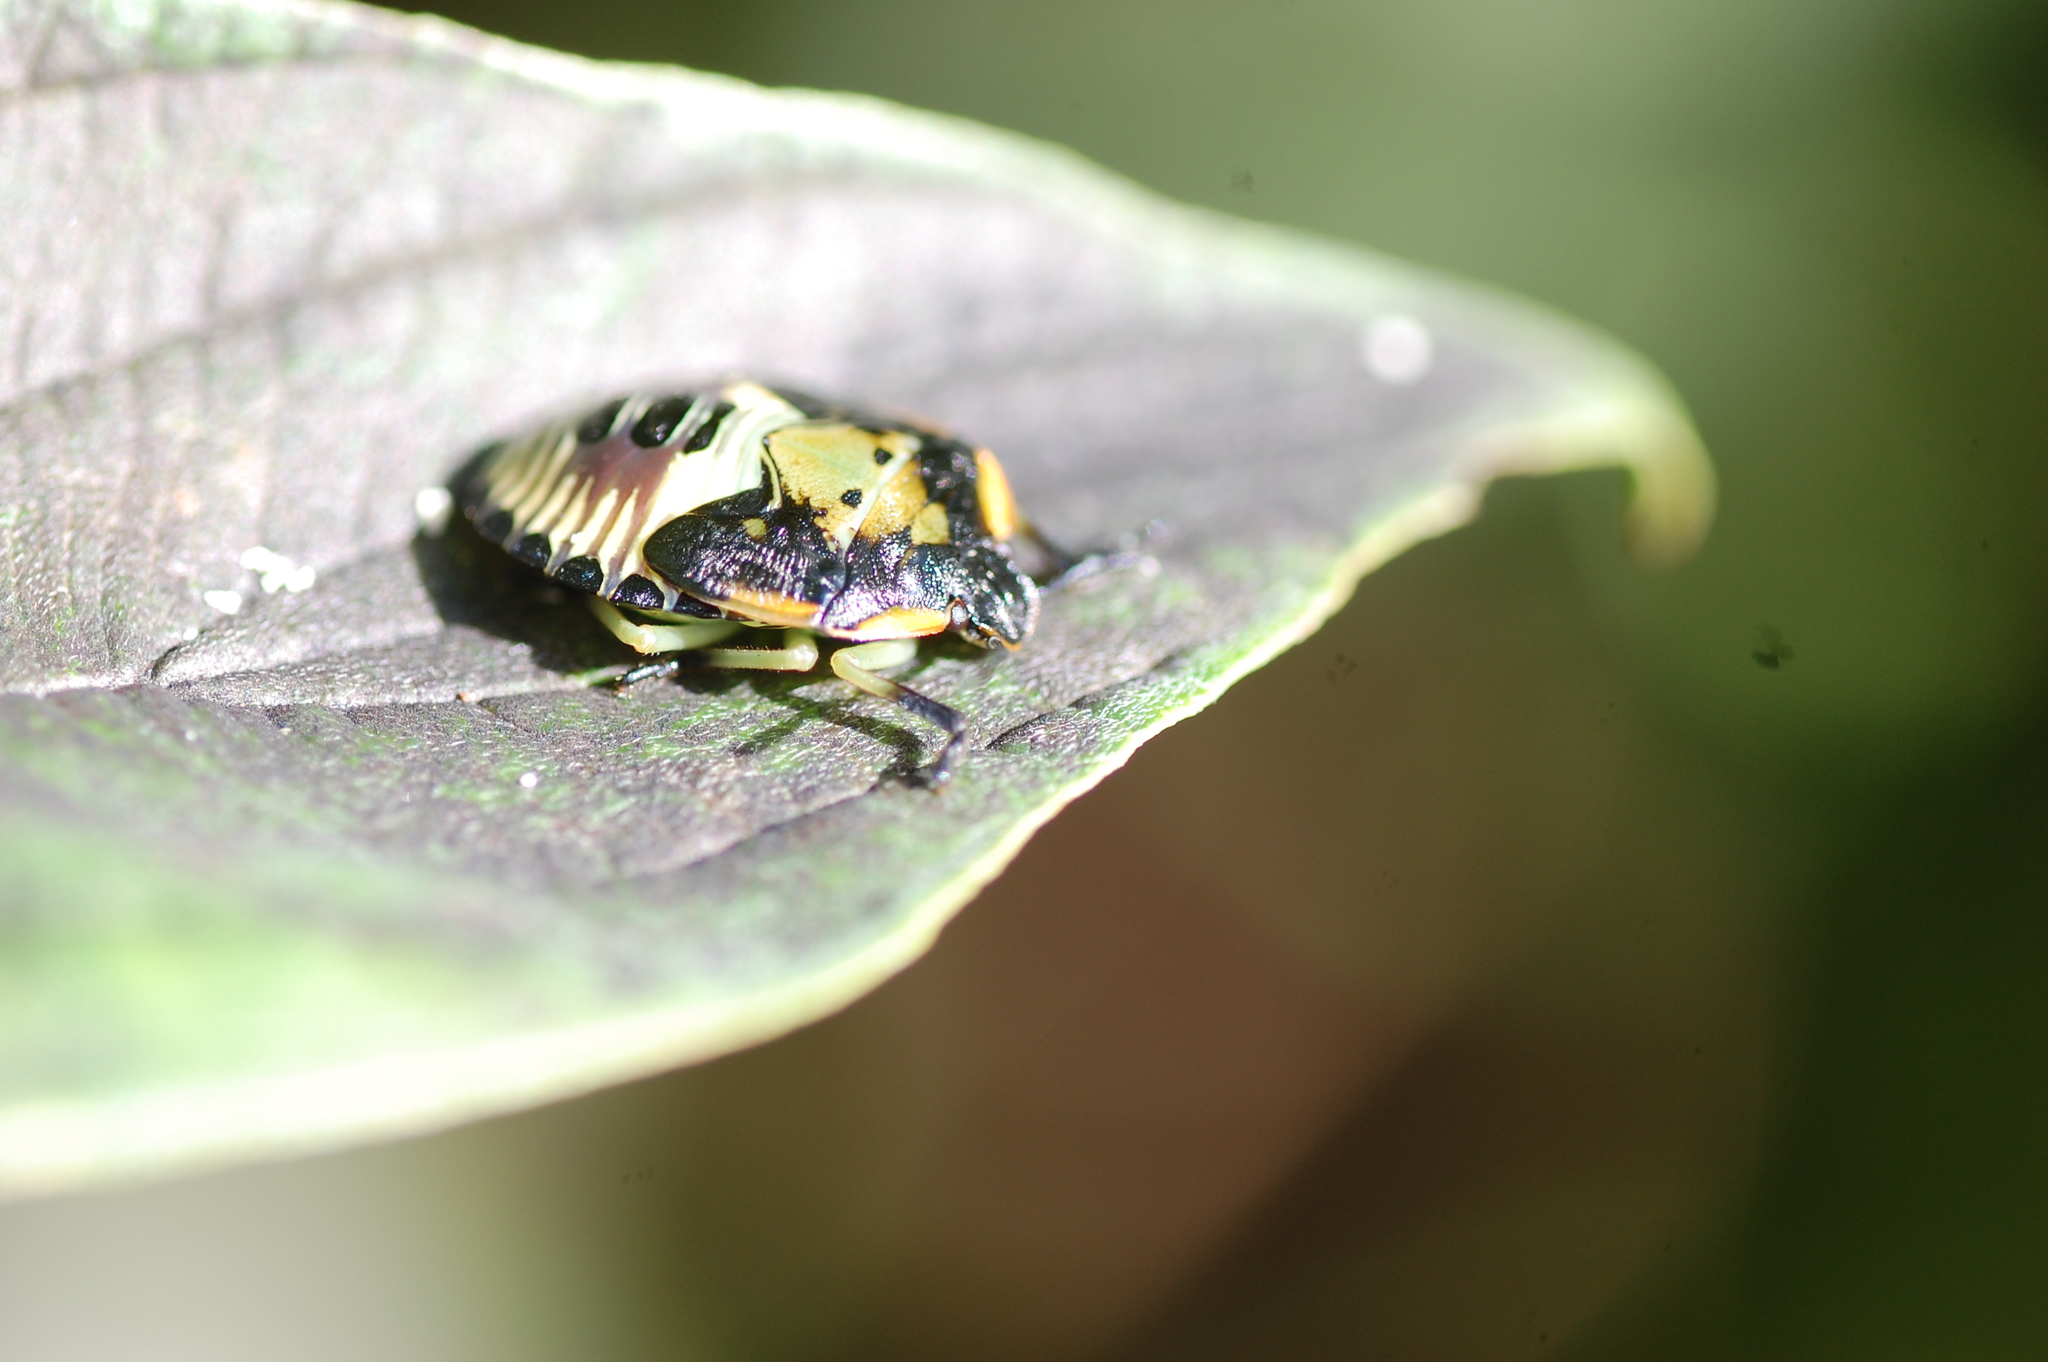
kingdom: Animalia
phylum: Arthropoda
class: Insecta
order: Hemiptera
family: Pentatomidae
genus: Chinavia
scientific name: Chinavia hilaris
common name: Green stink bug
